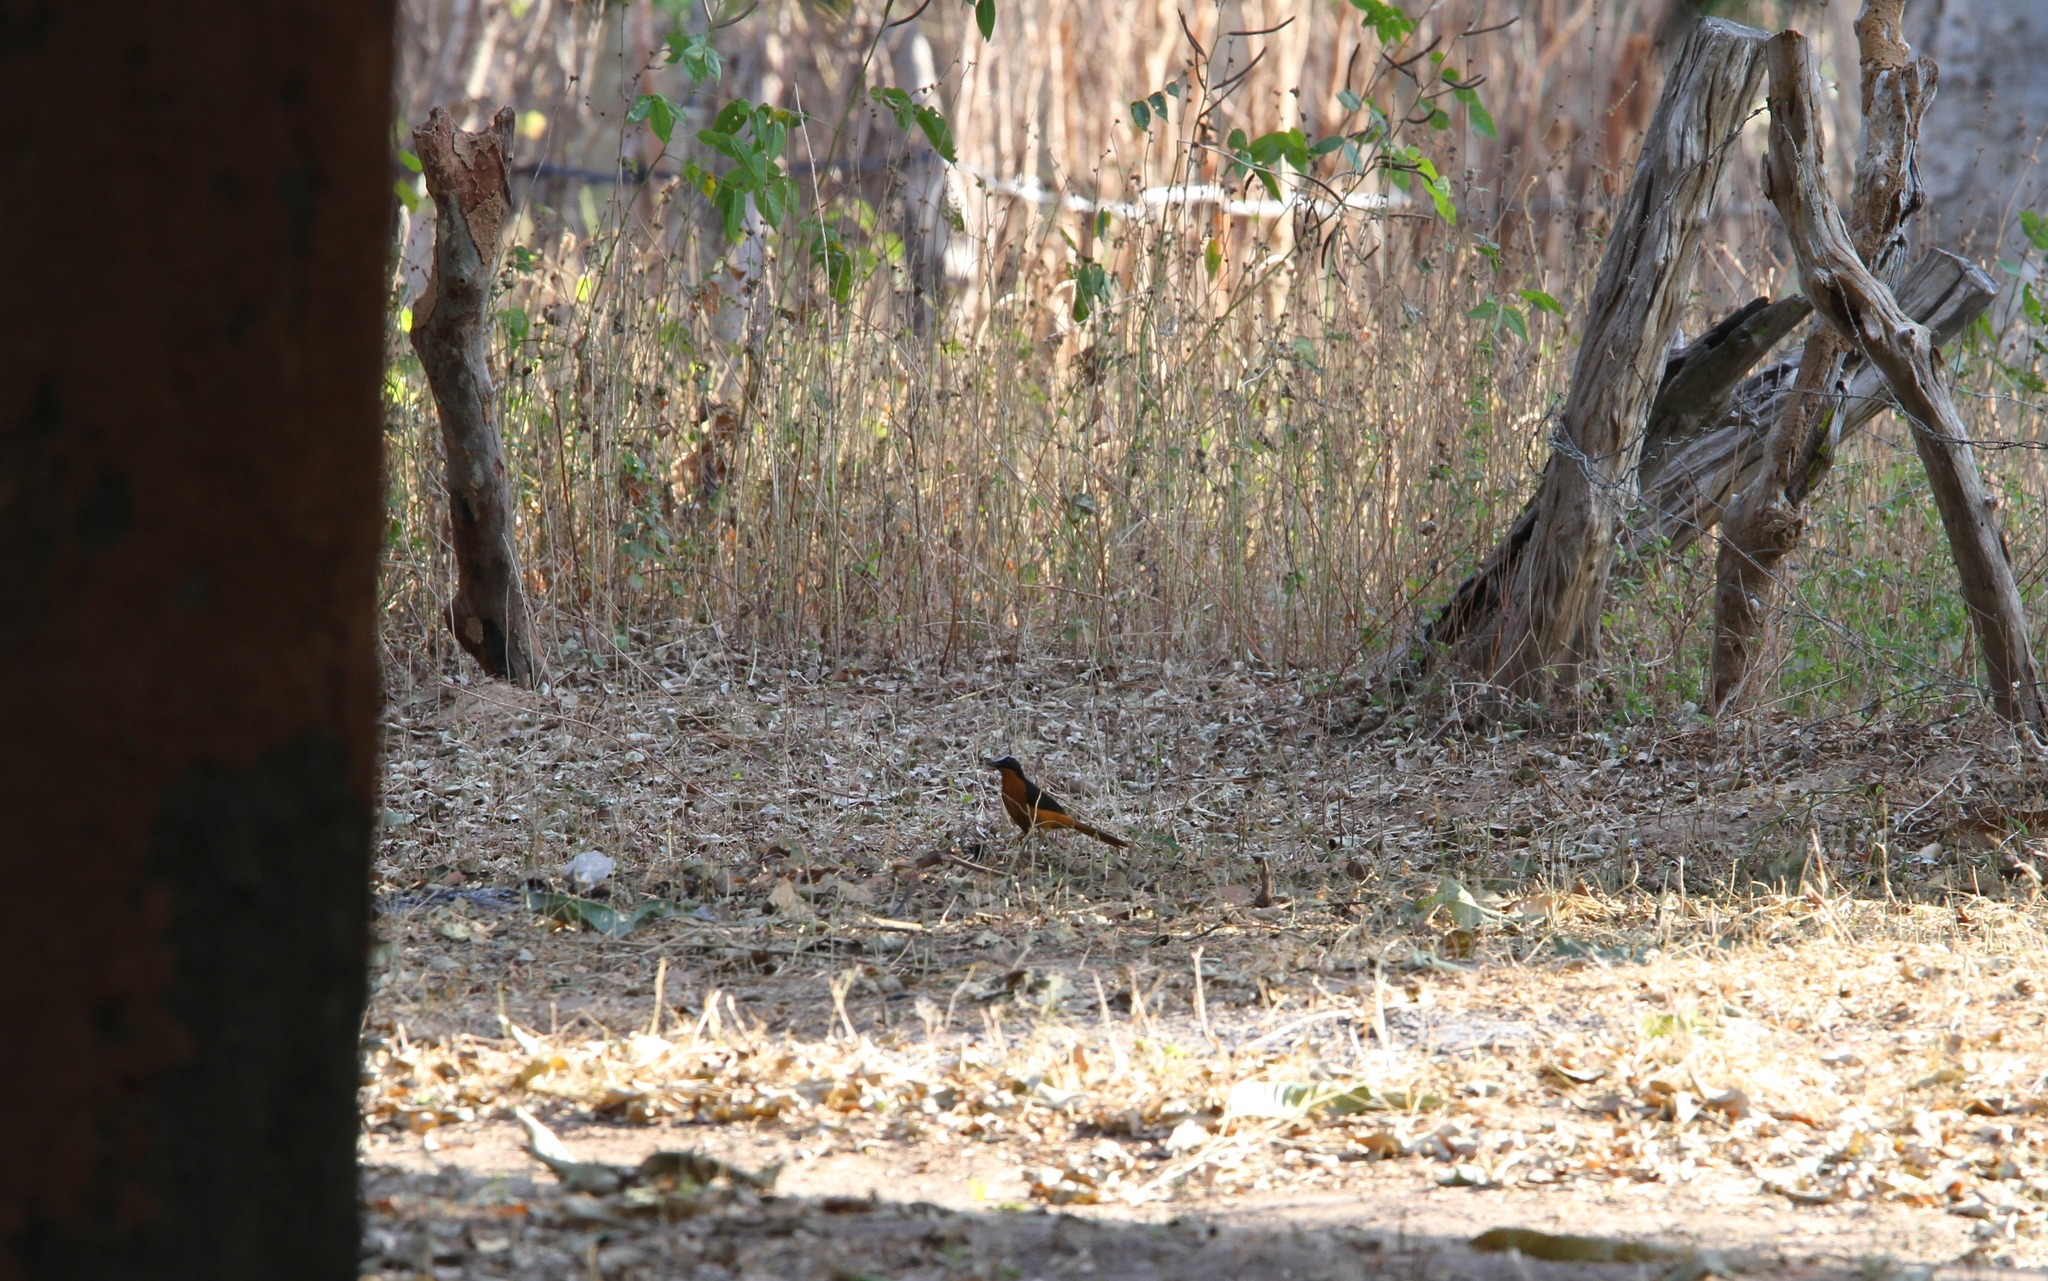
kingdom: Animalia
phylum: Chordata
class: Aves
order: Passeriformes
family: Muscicapidae
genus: Cossypha
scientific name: Cossypha albicapillus
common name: White-crowned robin-chat
